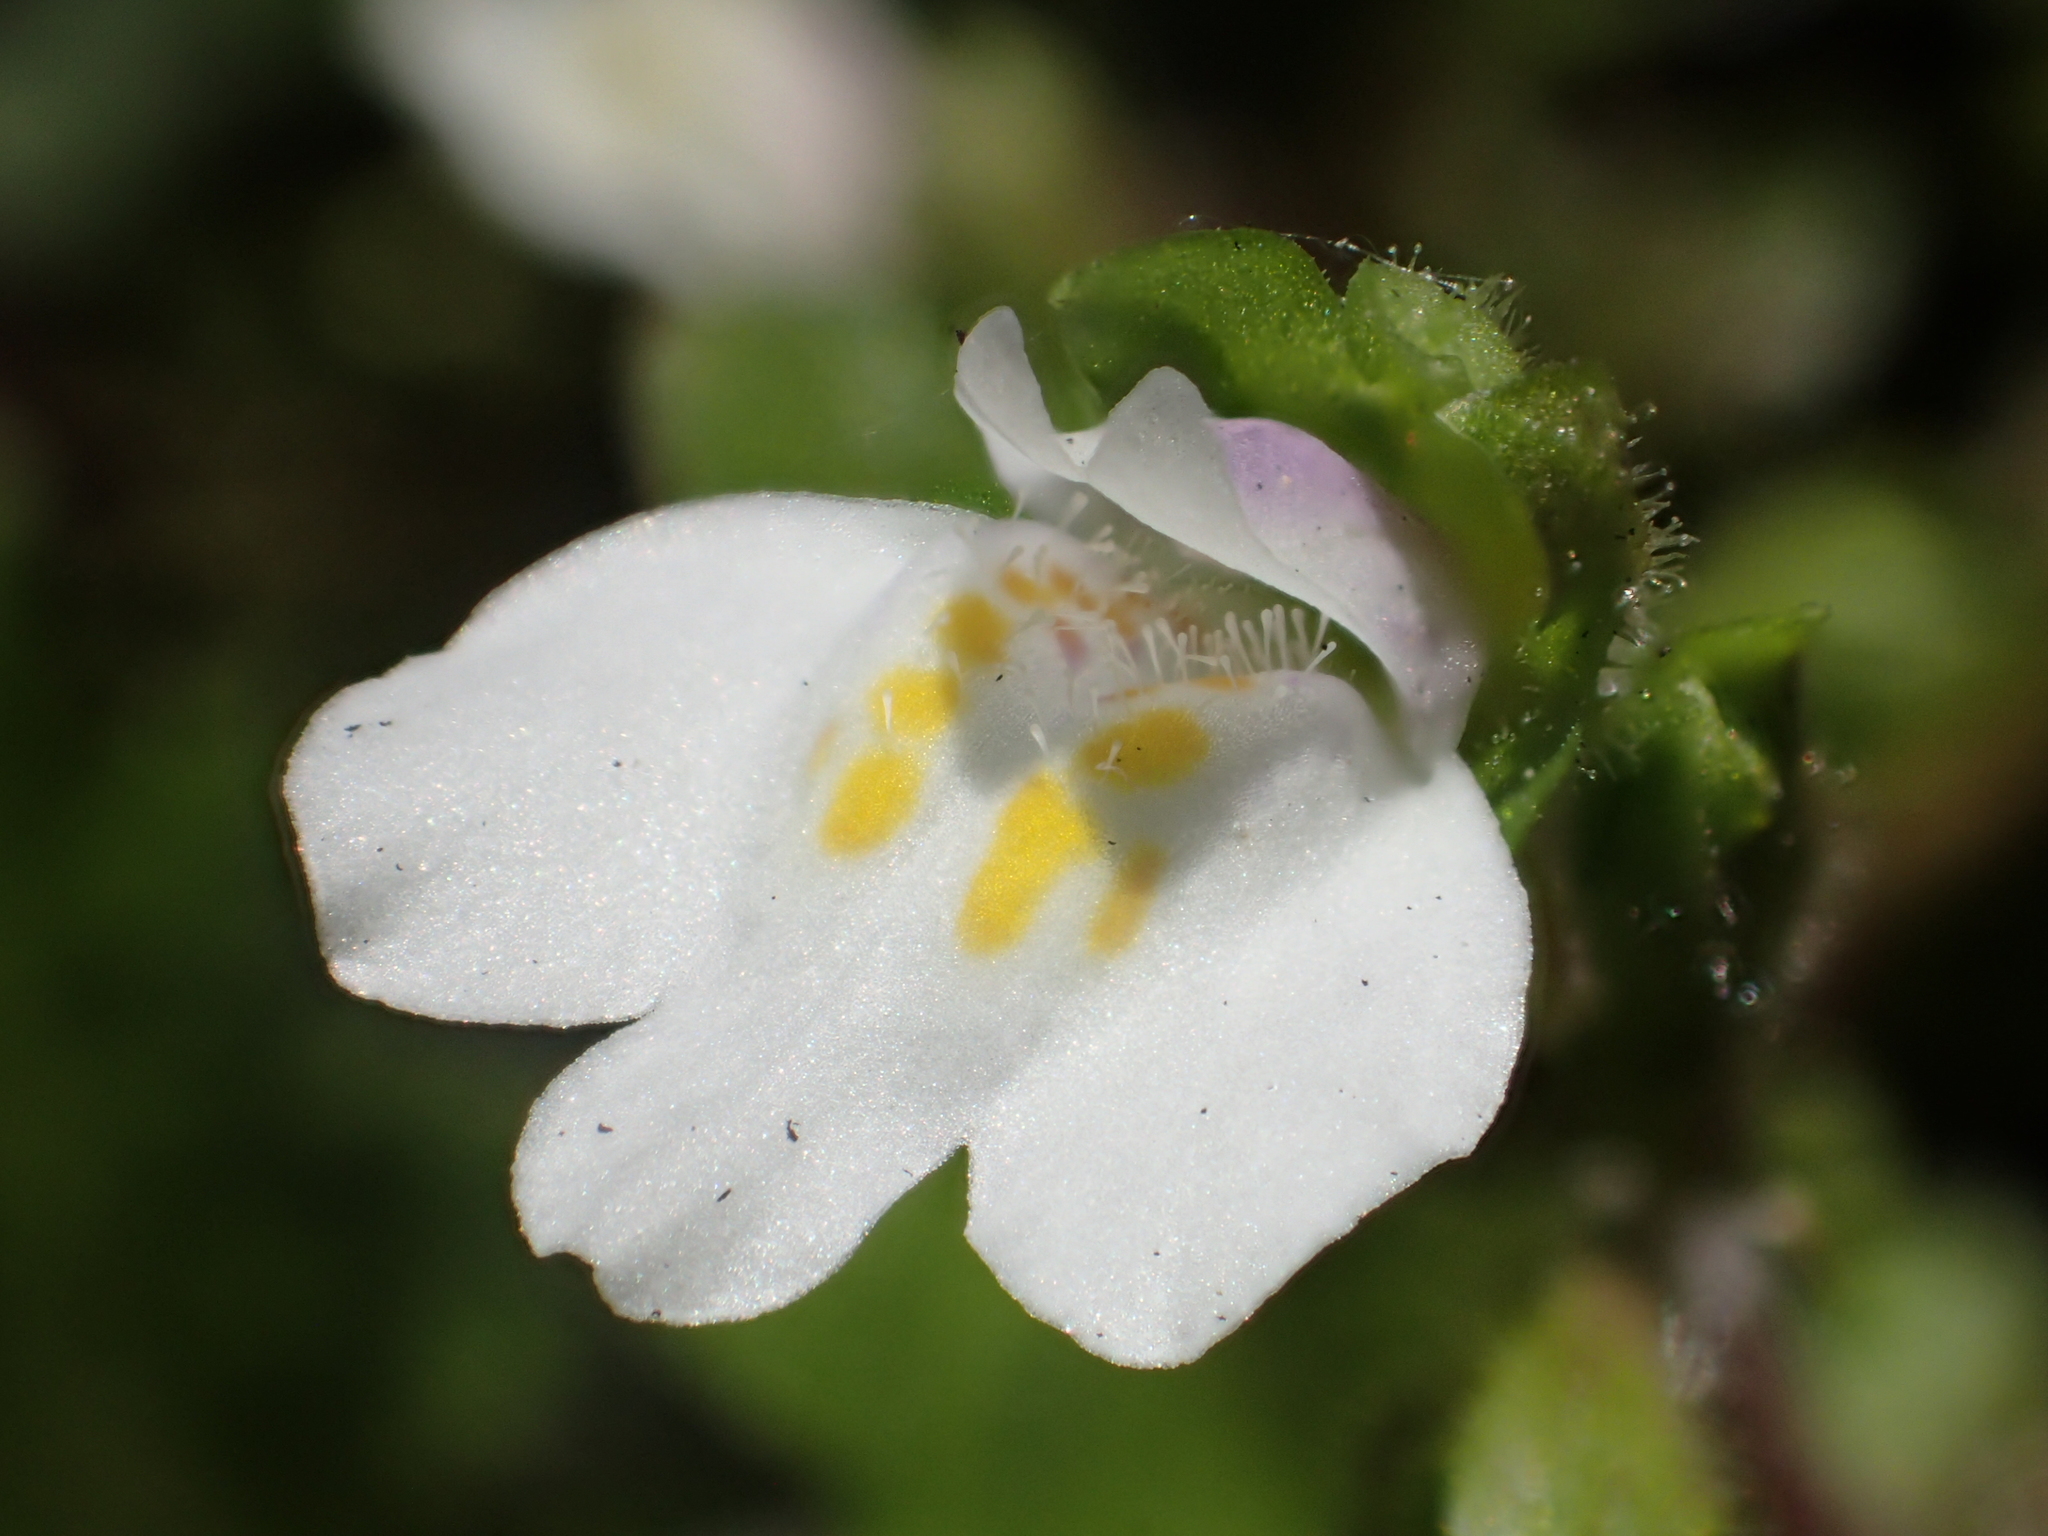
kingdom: Plantae
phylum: Tracheophyta
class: Magnoliopsida
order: Lamiales
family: Mazaceae
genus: Mazus
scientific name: Mazus goodeniifolius
